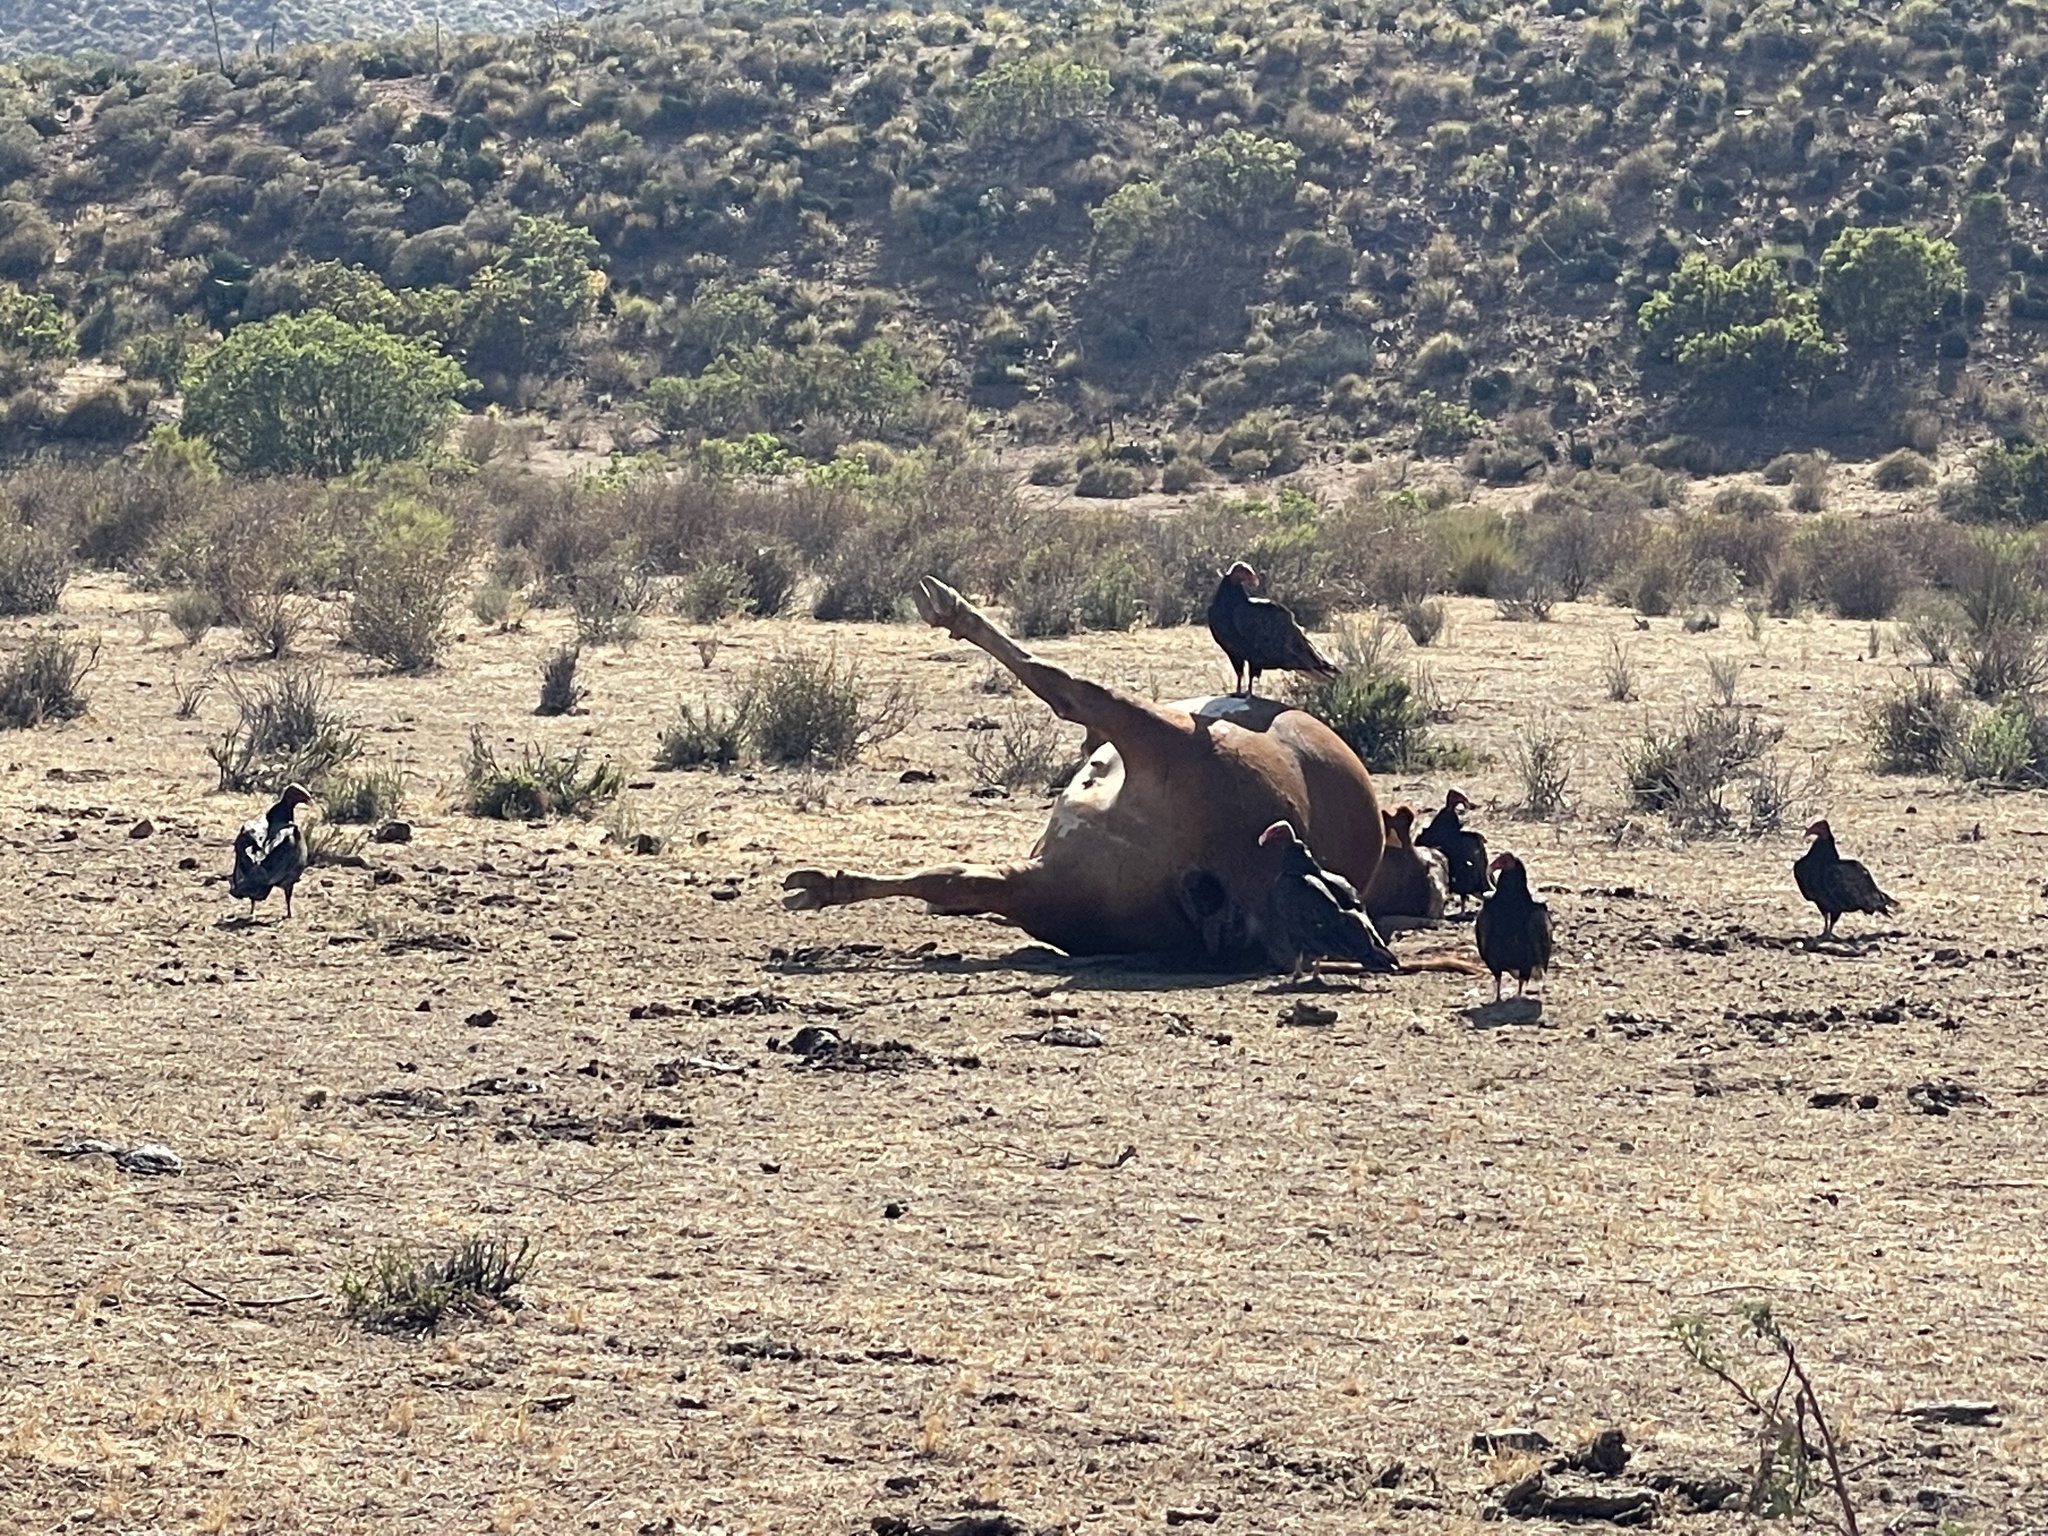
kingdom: Animalia
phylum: Chordata
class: Aves
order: Accipitriformes
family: Cathartidae
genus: Cathartes
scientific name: Cathartes aura
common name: Turkey vulture
